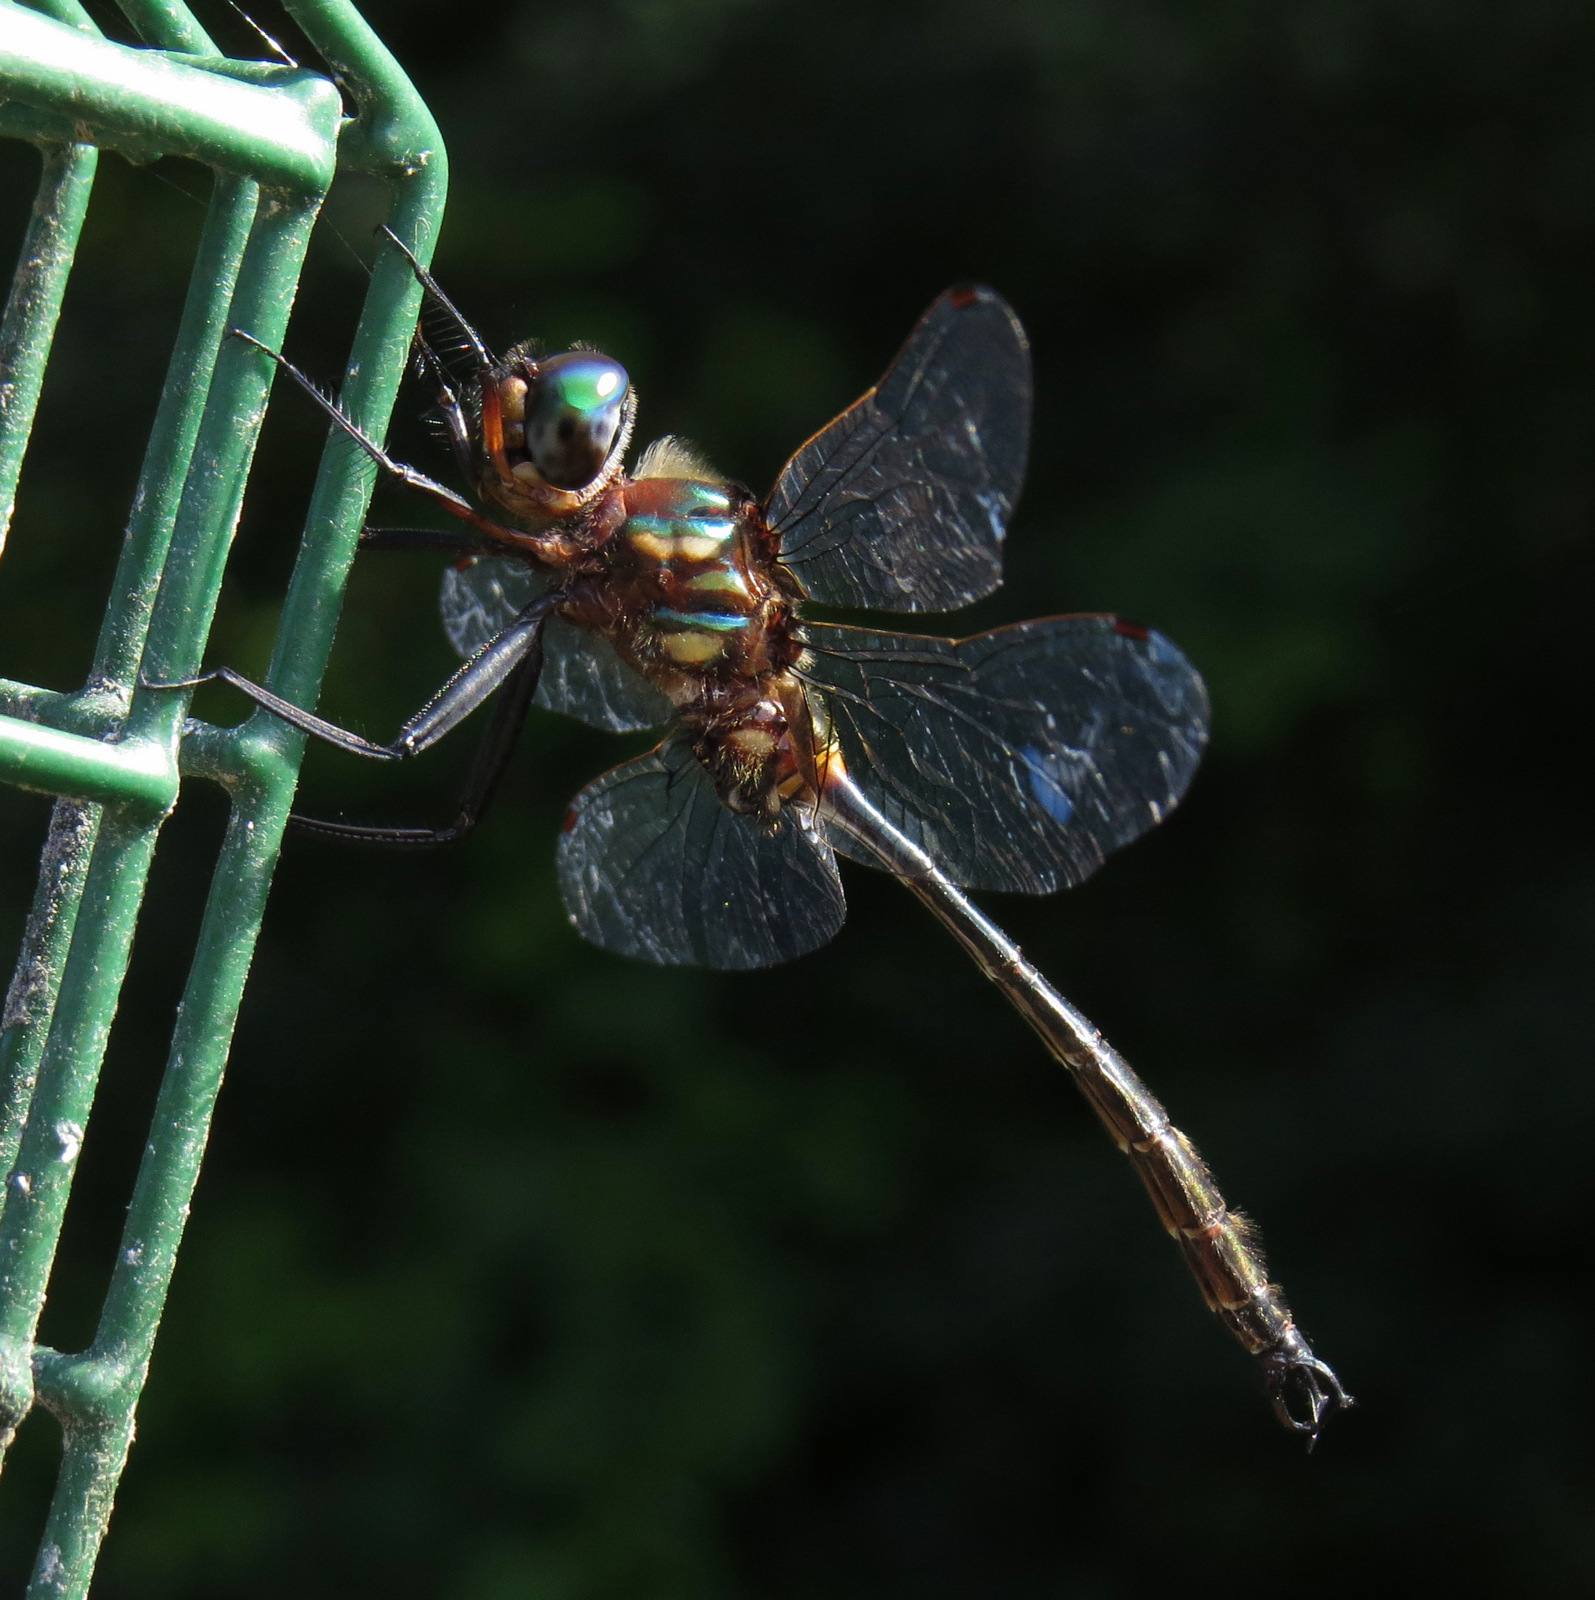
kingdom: Animalia
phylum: Arthropoda
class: Insecta
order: Odonata
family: Corduliidae
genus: Somatochlora
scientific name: Somatochlora tenebrosa
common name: Clamp-tipped emerald
